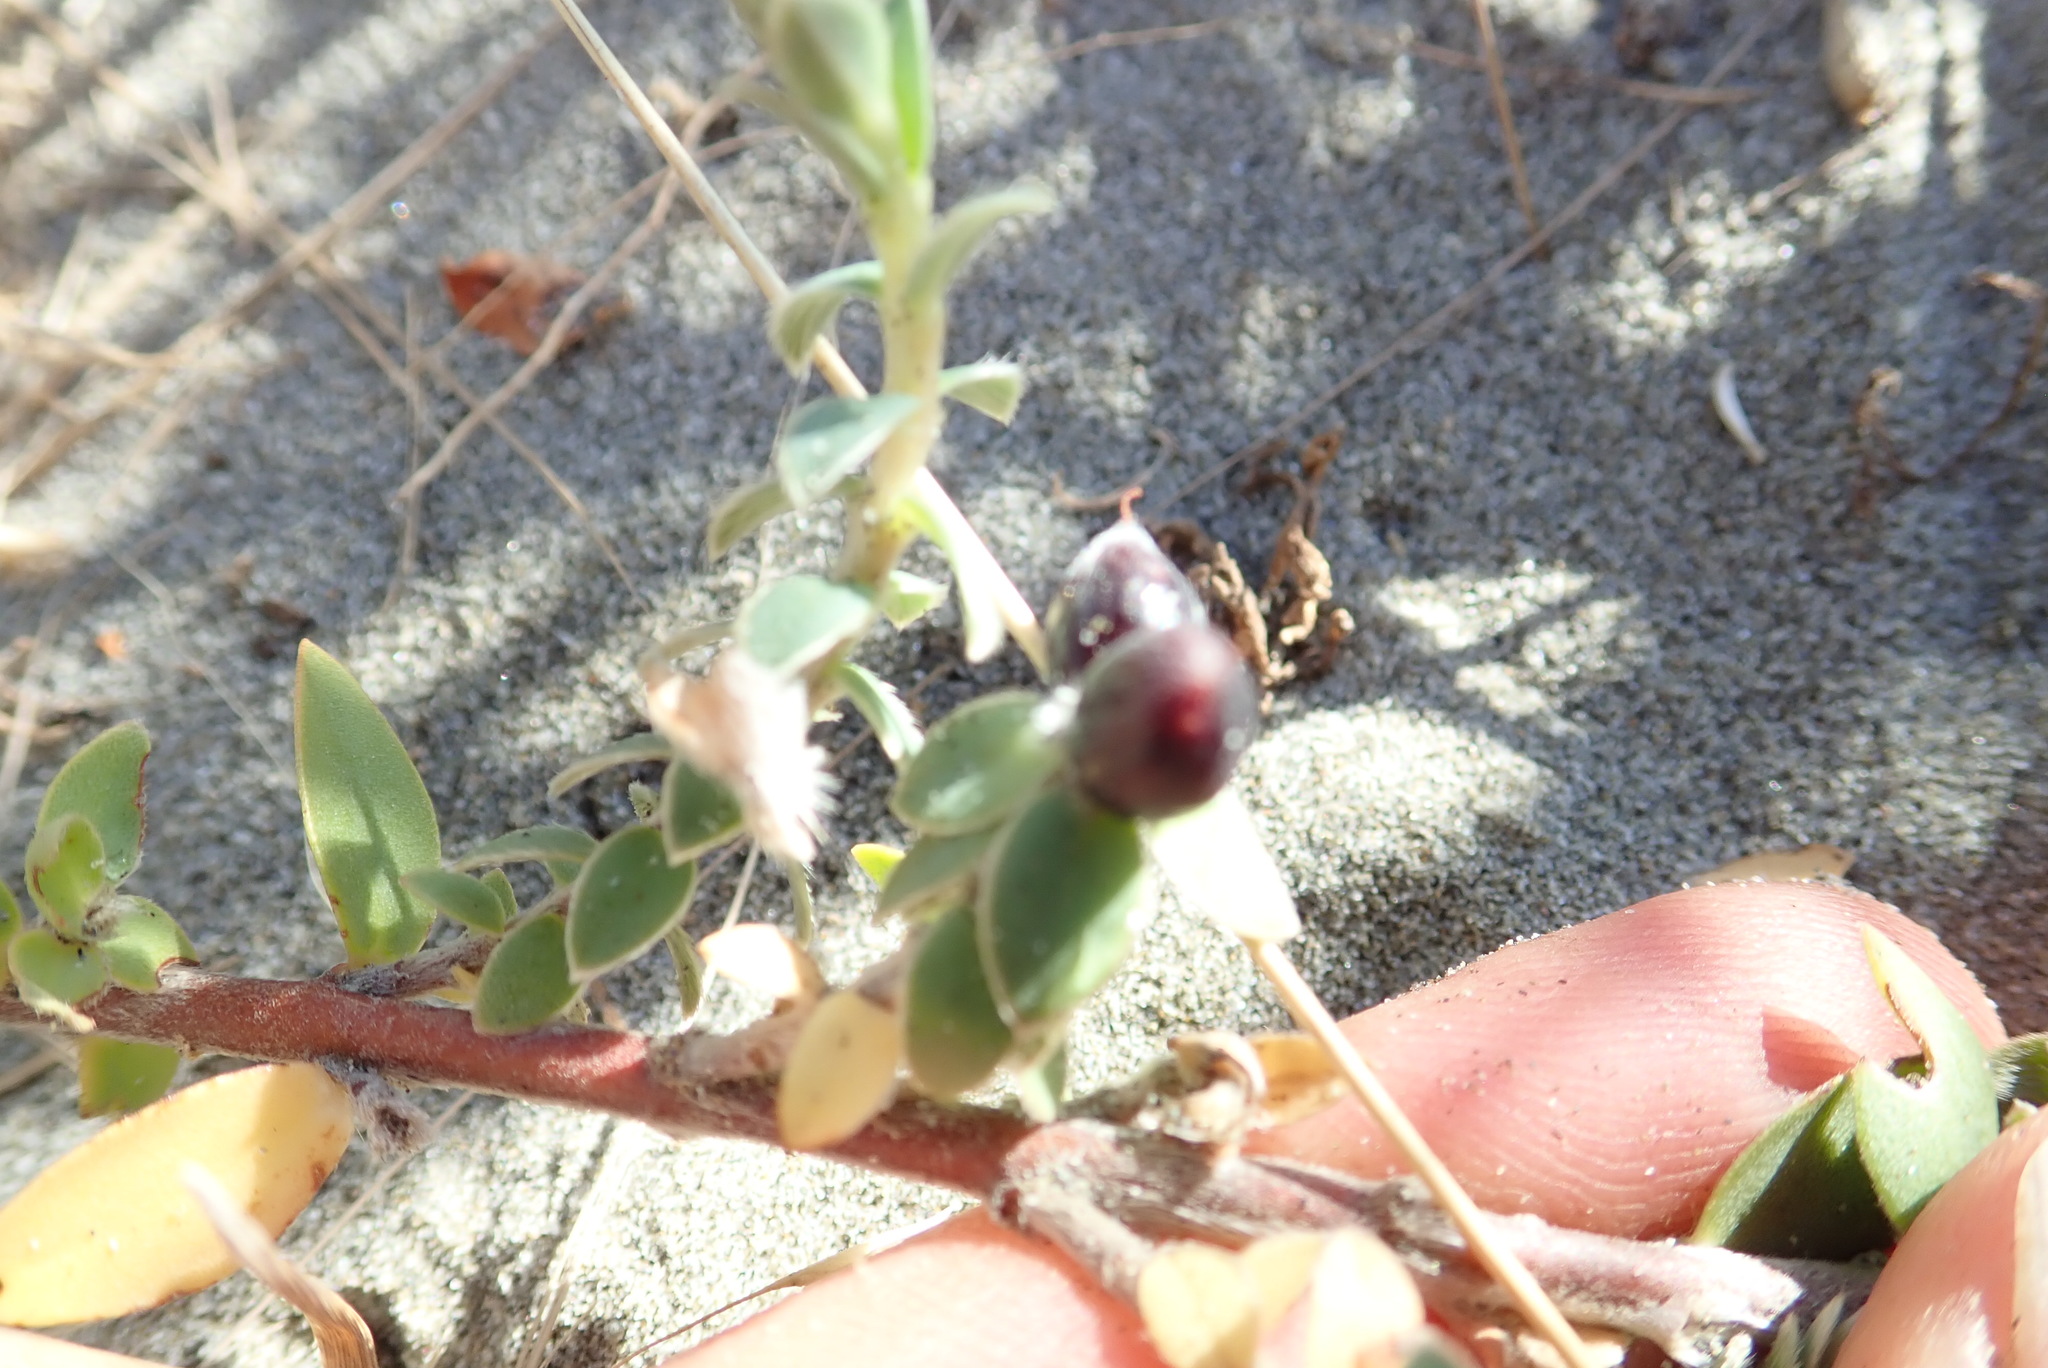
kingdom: Plantae
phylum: Tracheophyta
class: Magnoliopsida
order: Malvales
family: Thymelaeaceae
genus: Pimelea
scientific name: Pimelea villosa
